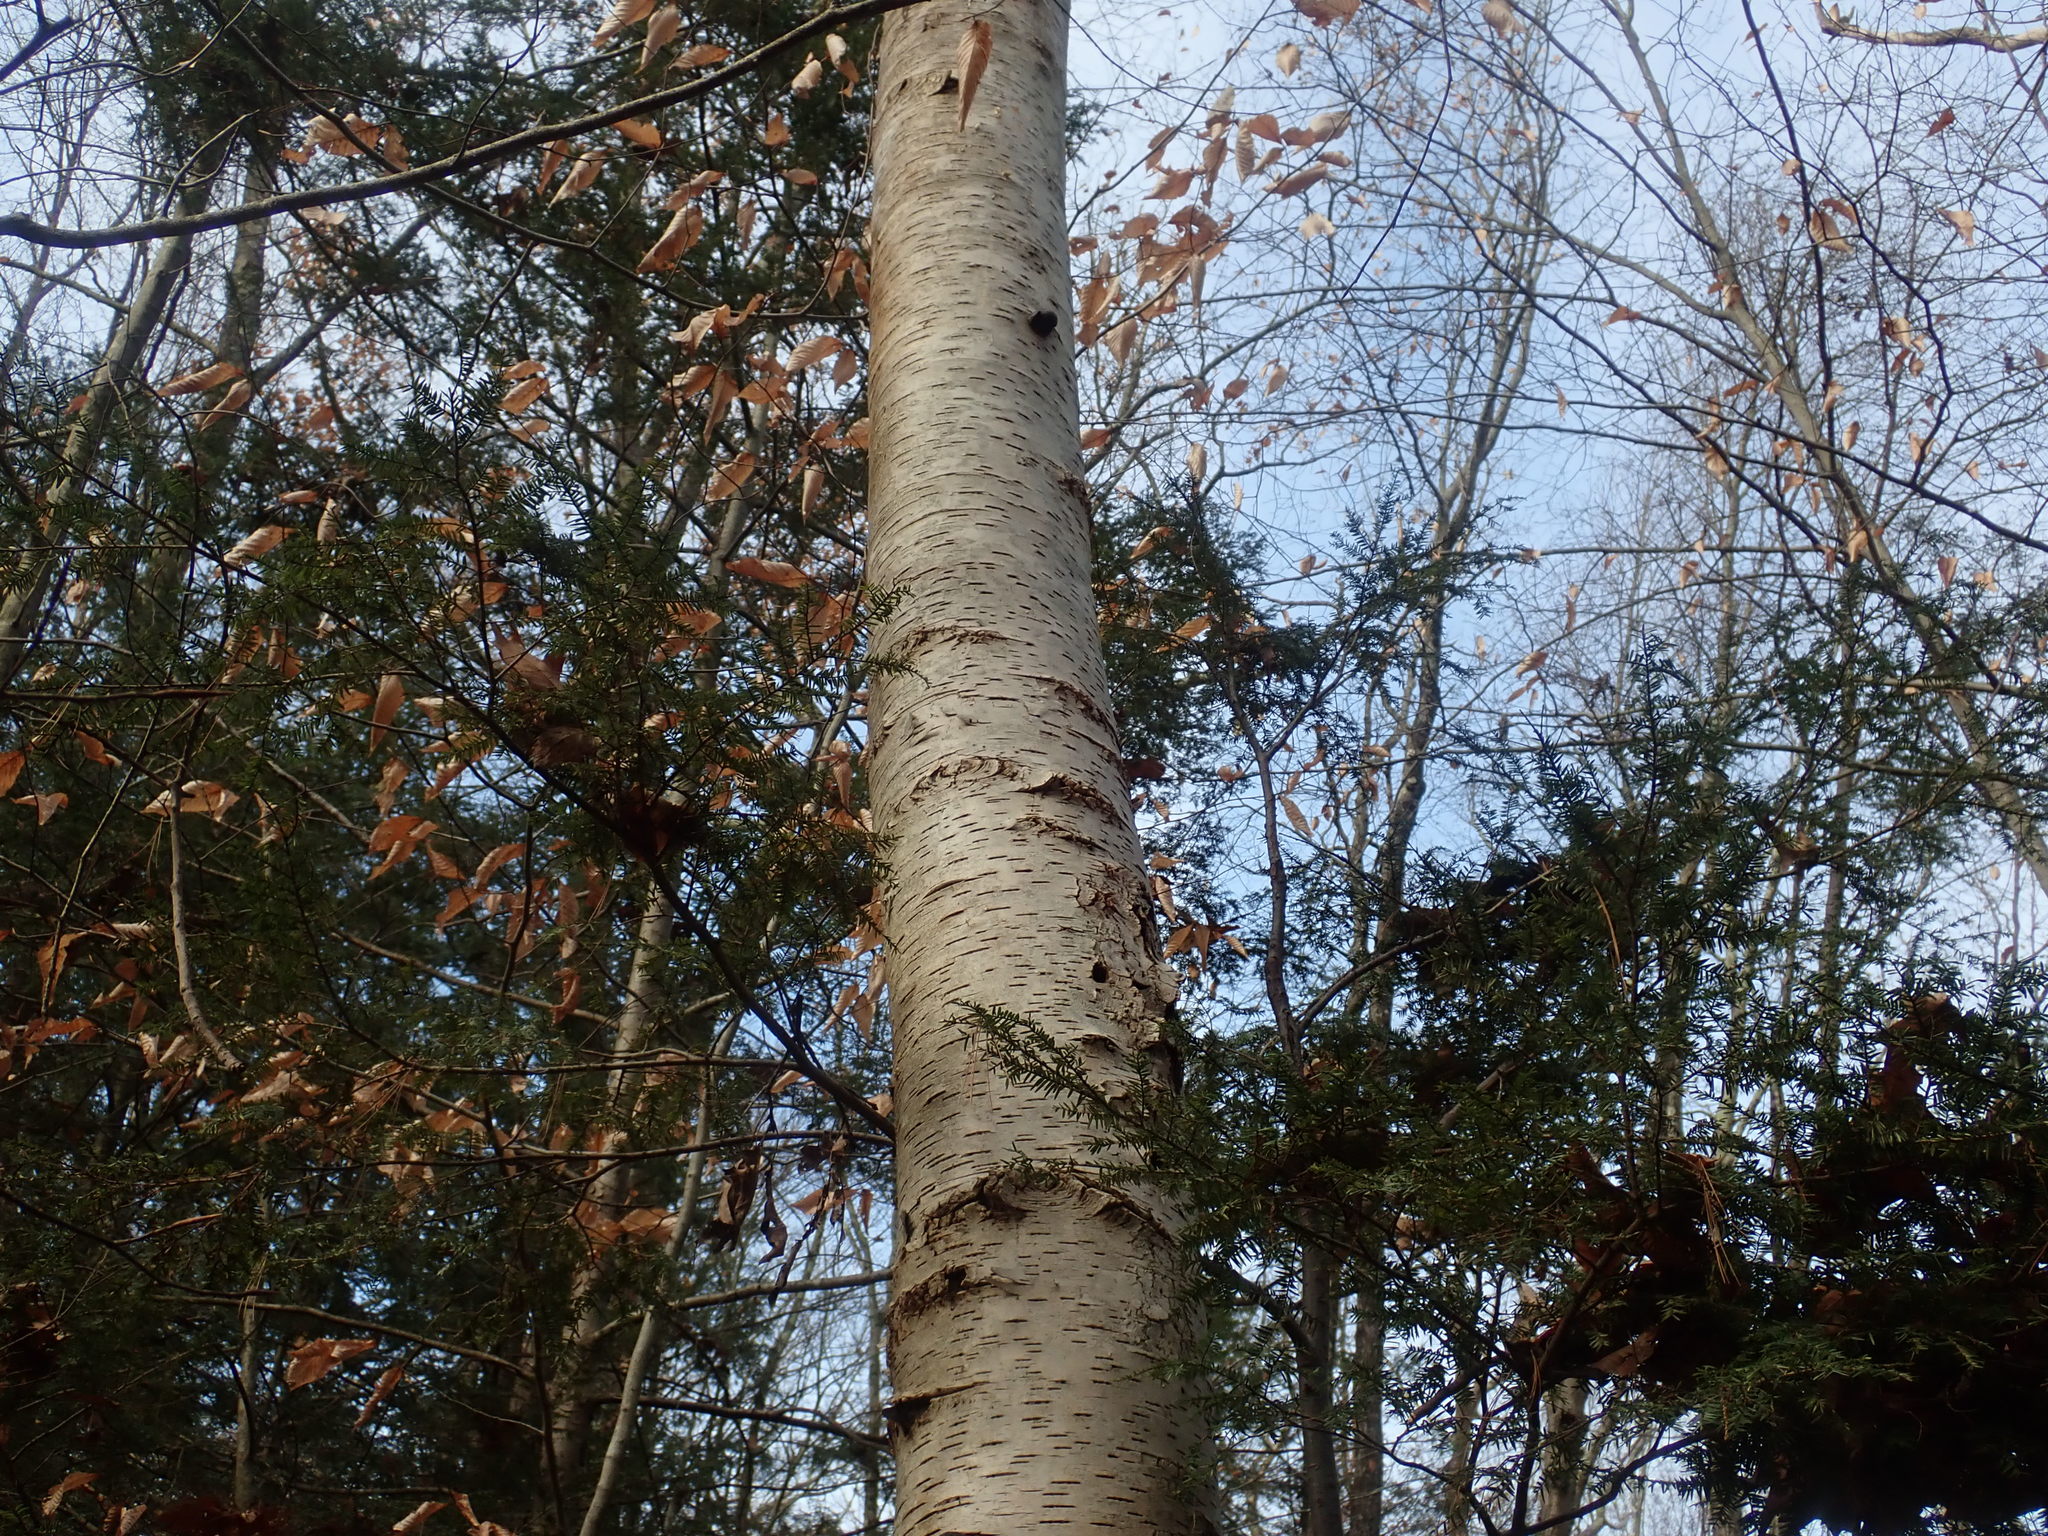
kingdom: Plantae
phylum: Tracheophyta
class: Magnoliopsida
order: Fagales
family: Betulaceae
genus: Betula
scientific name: Betula papyrifera
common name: Paper birch
